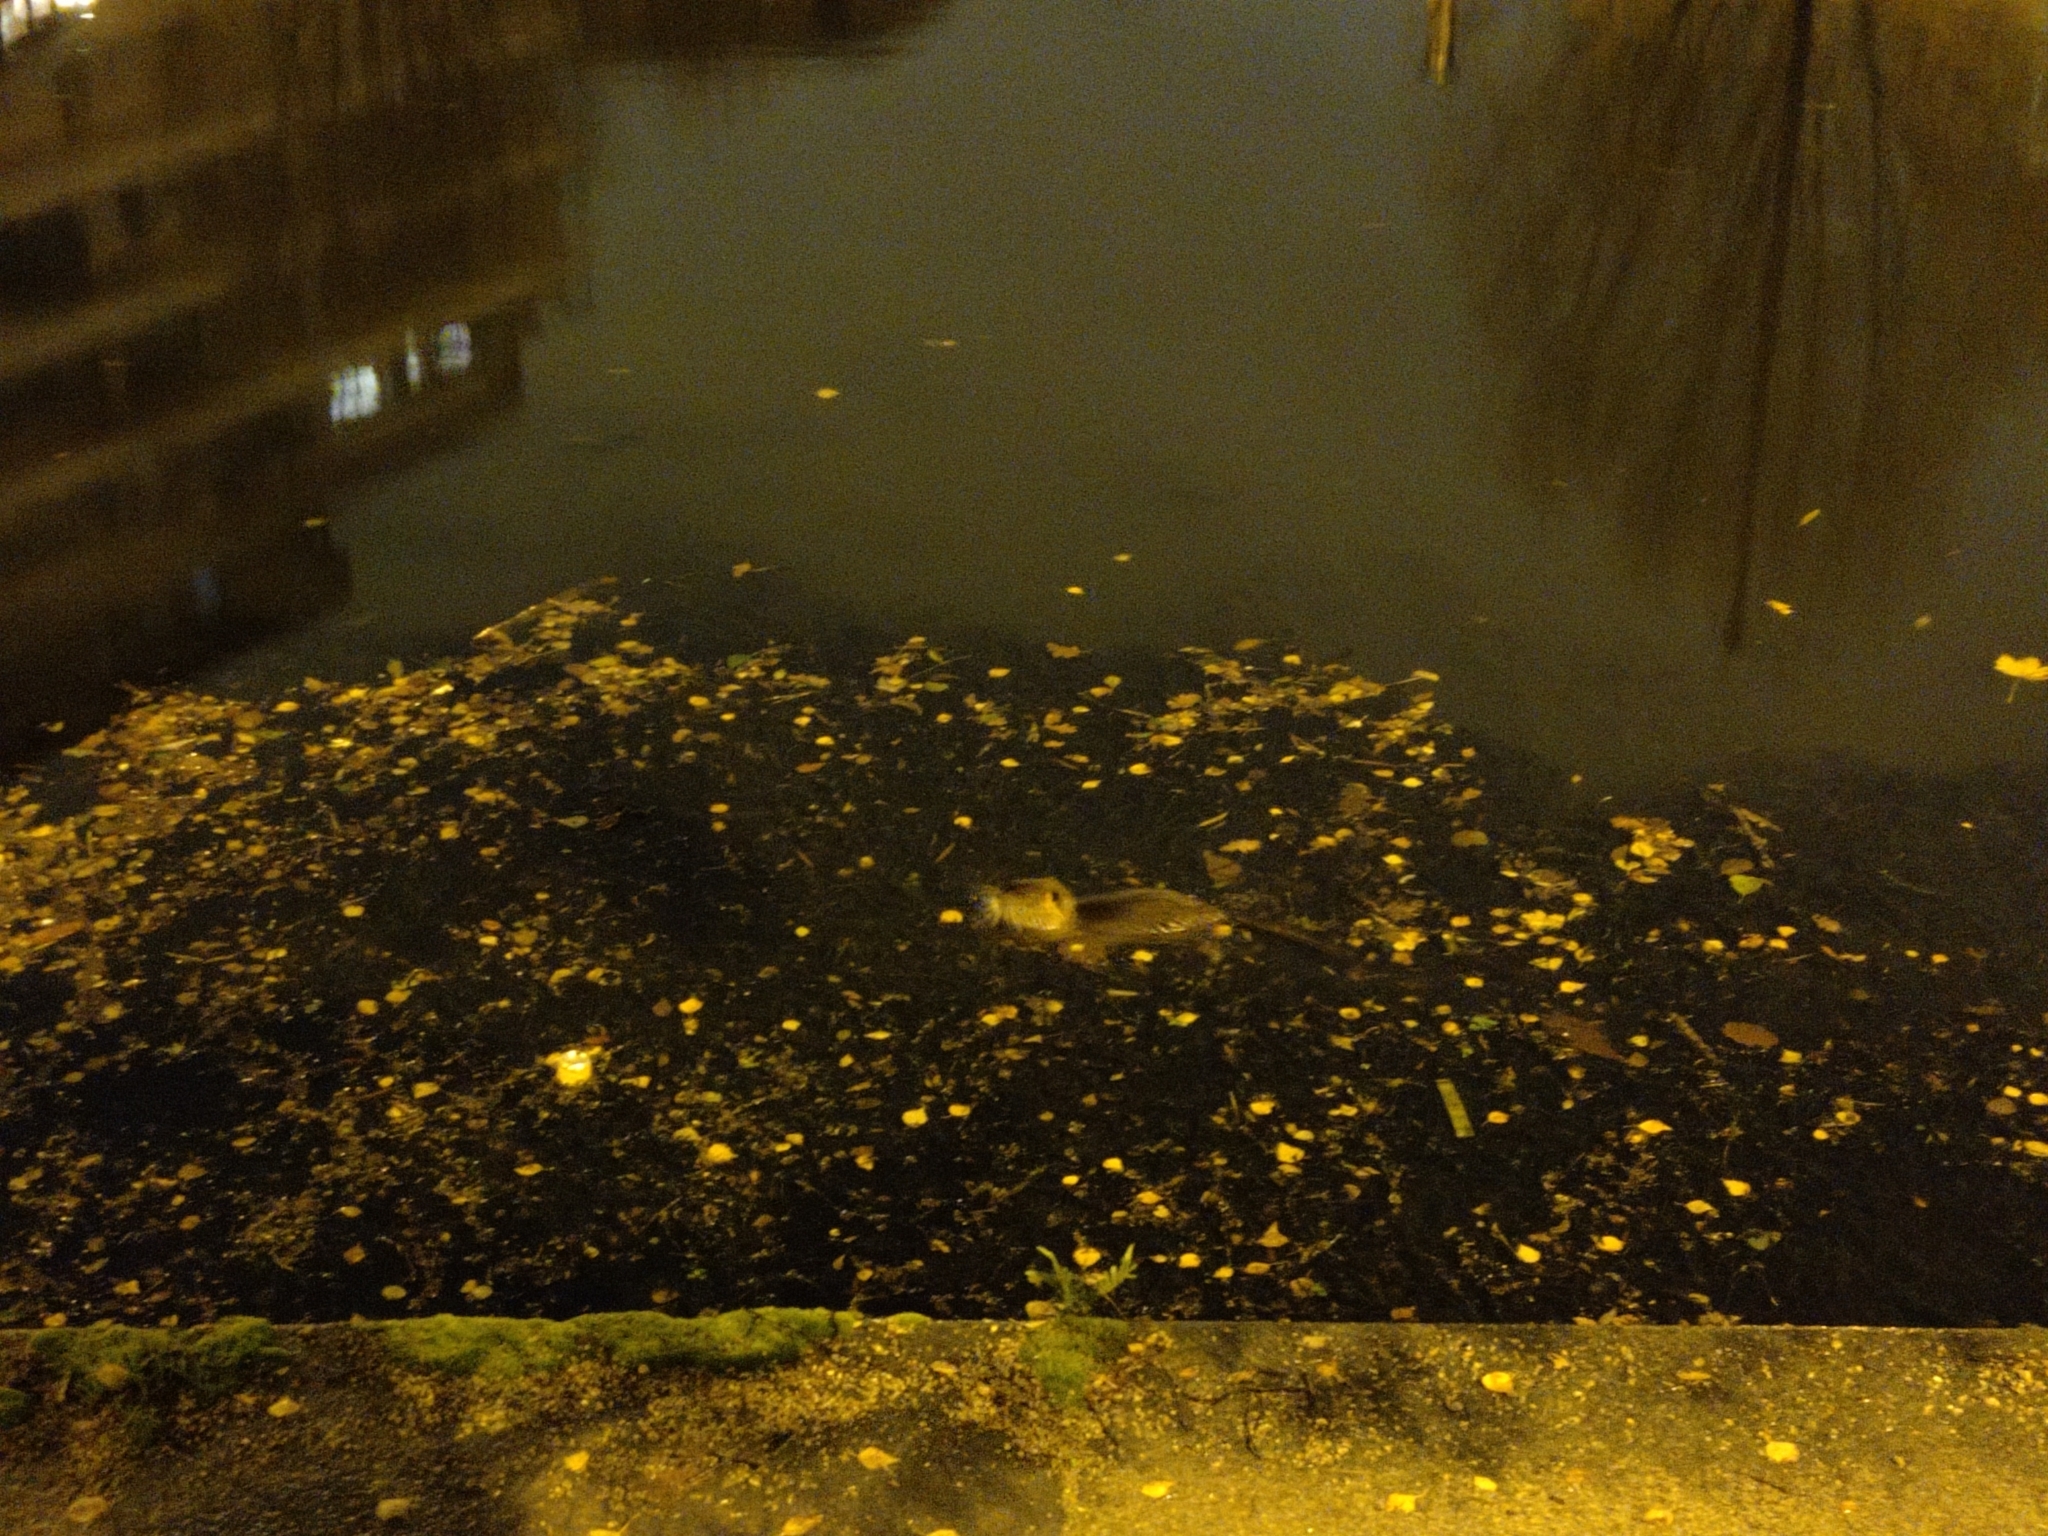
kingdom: Animalia
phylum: Chordata
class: Mammalia
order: Rodentia
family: Myocastoridae
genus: Myocastor
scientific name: Myocastor coypus
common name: Coypu
